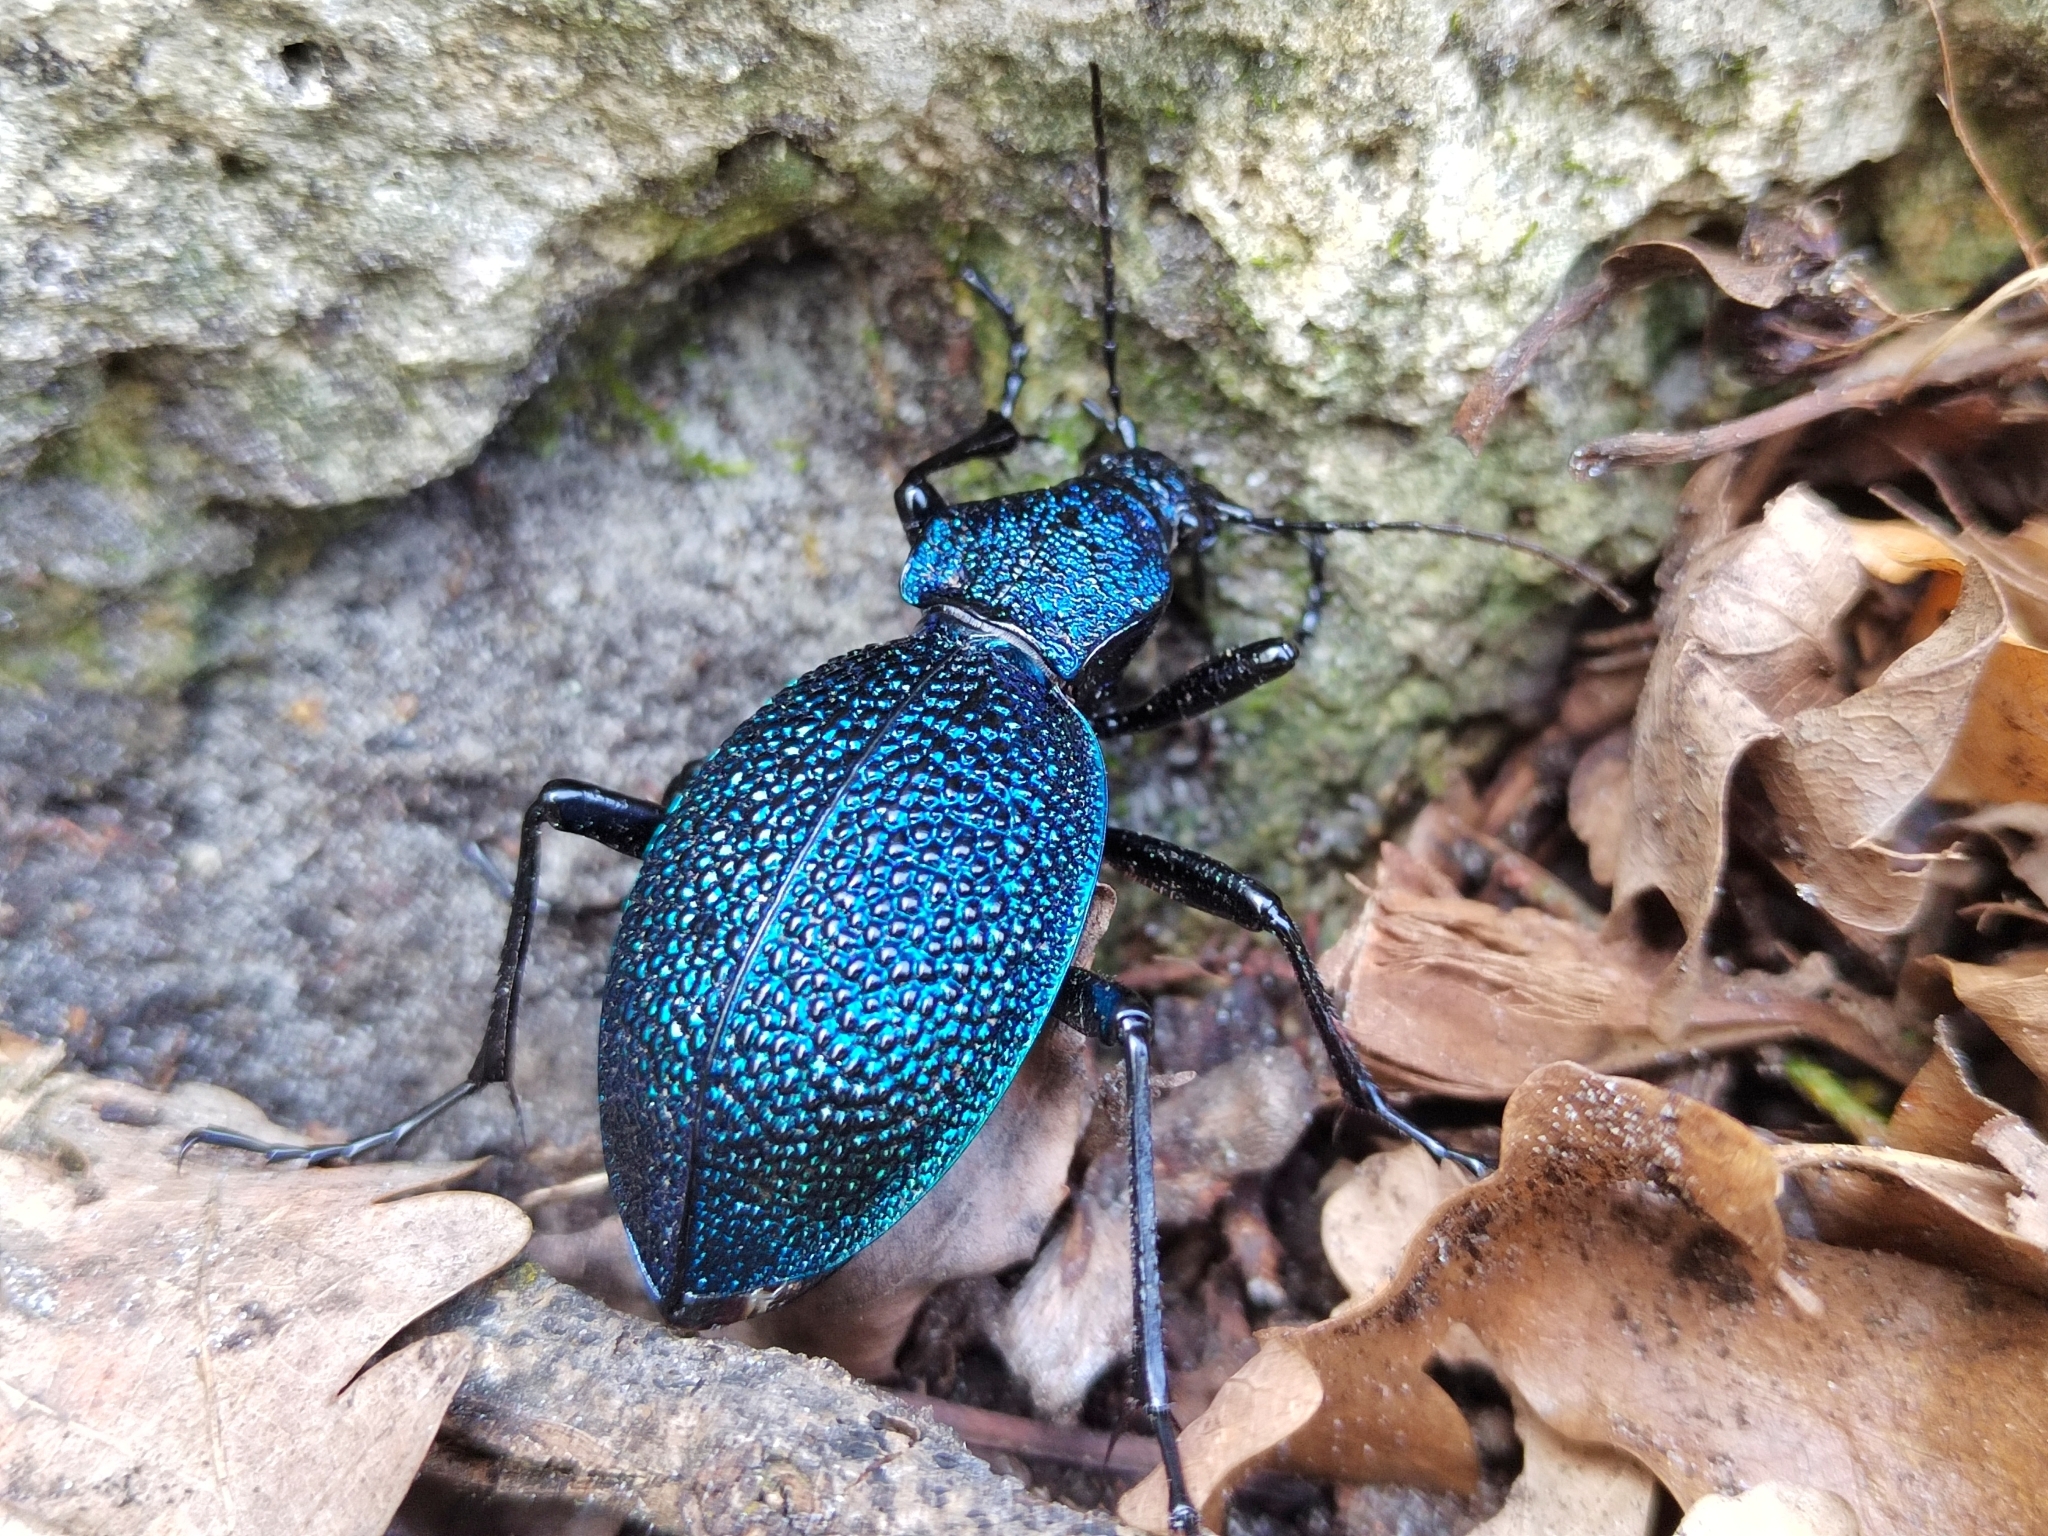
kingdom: Animalia
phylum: Arthropoda
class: Insecta
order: Coleoptera
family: Carabidae
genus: Carabus
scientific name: Carabus scabrosus
